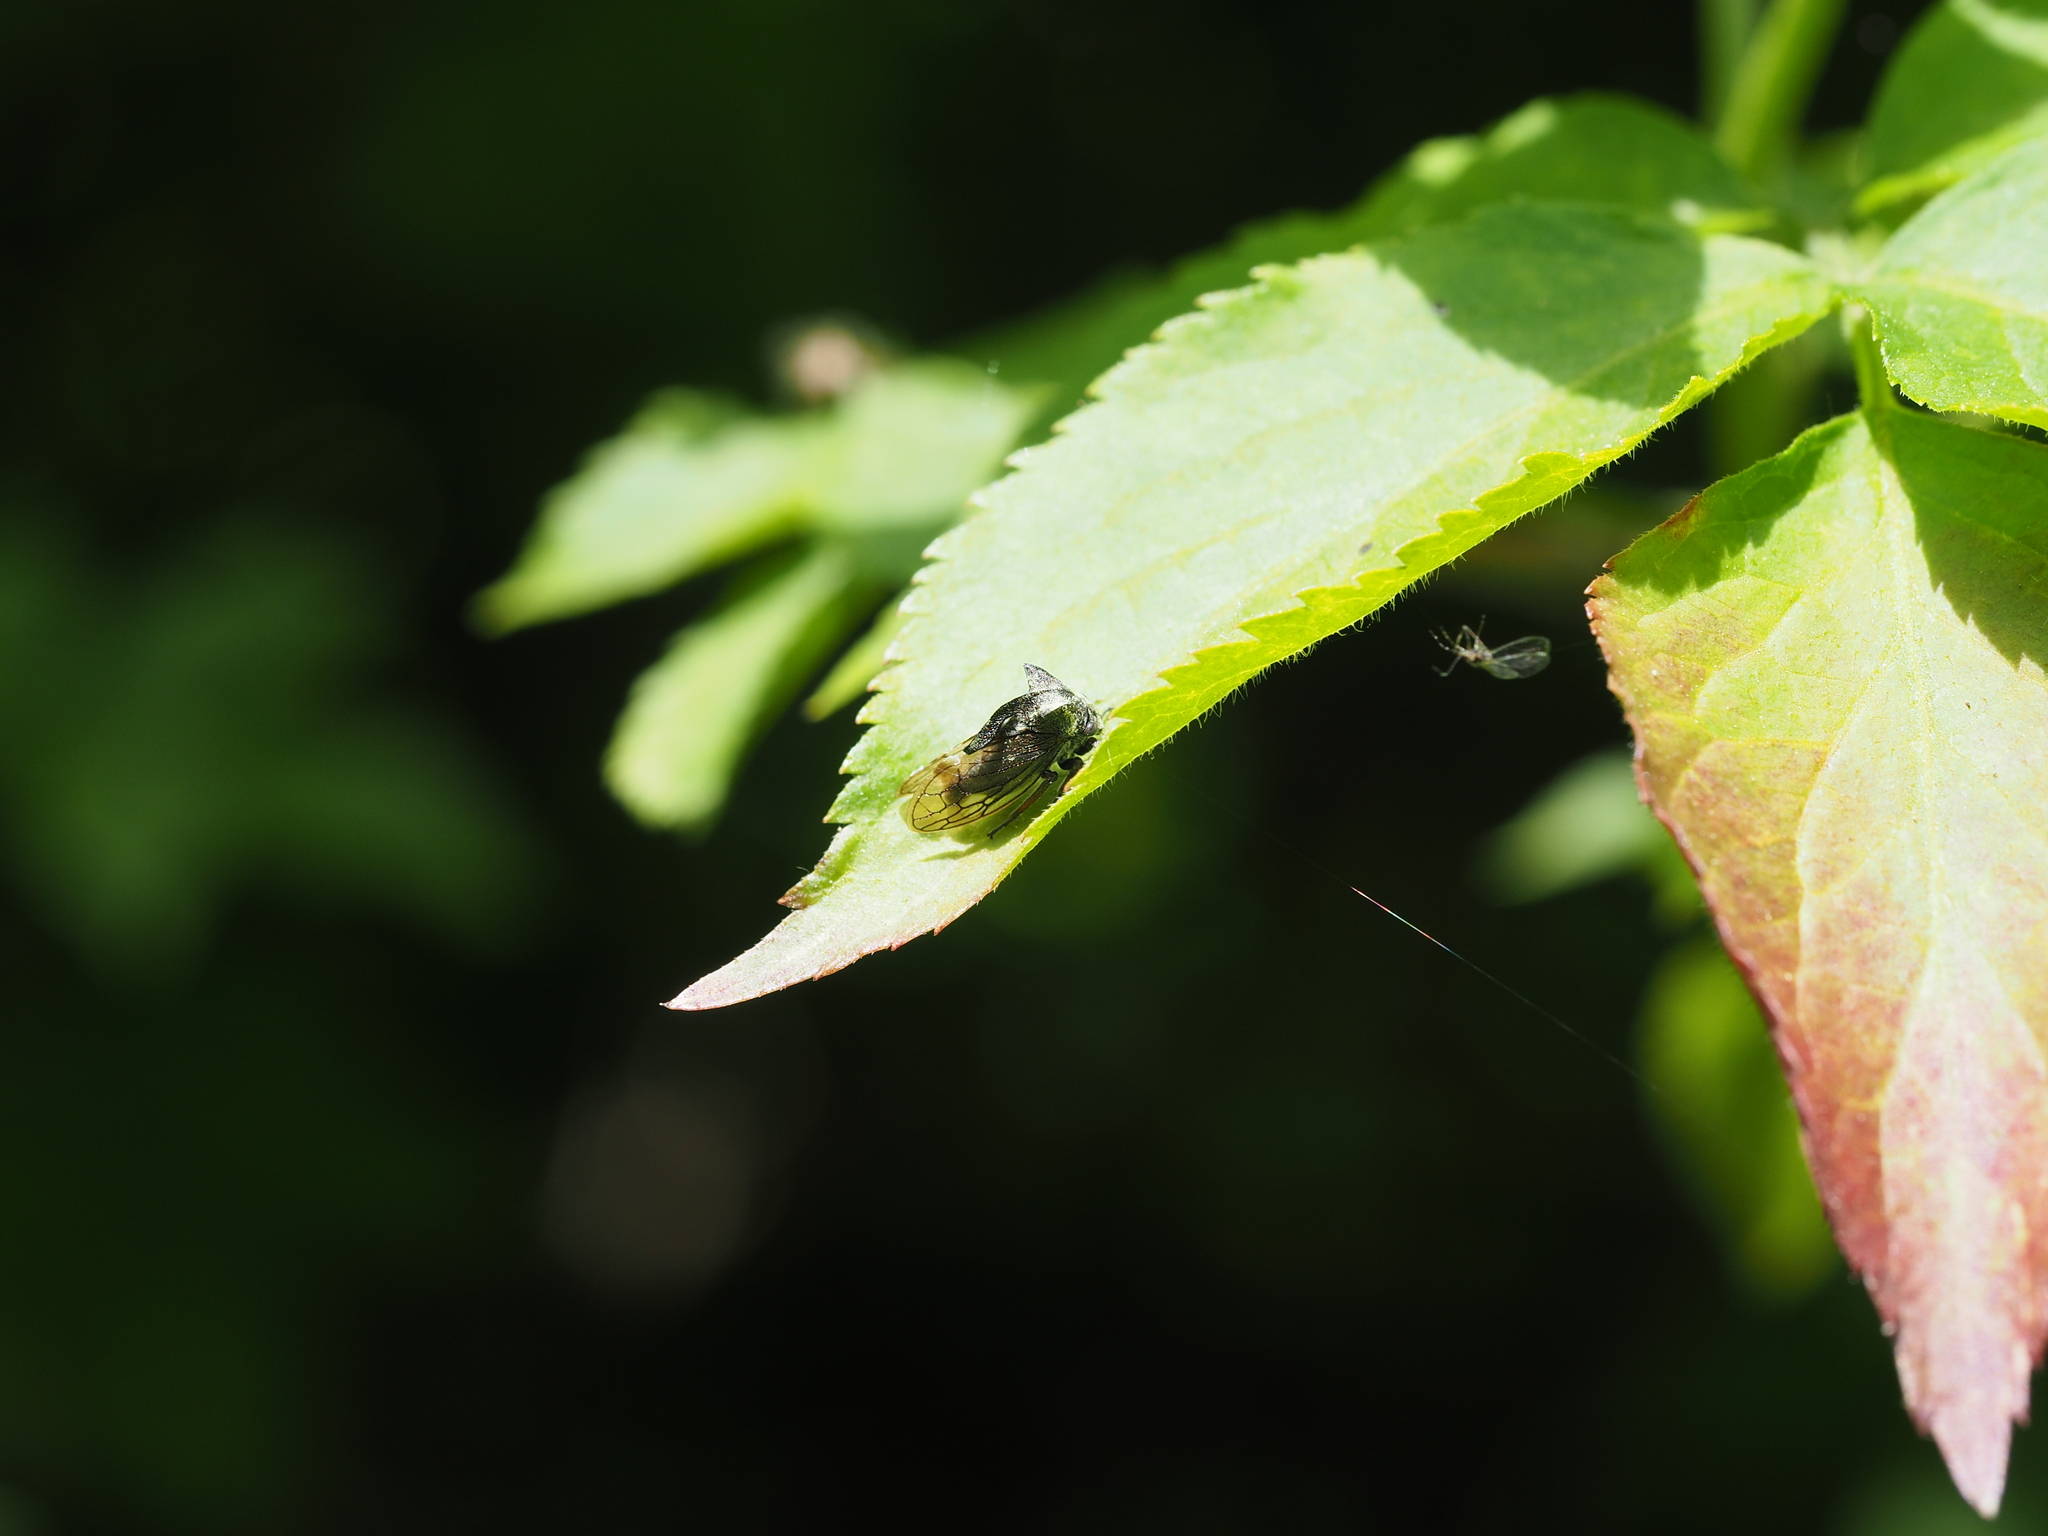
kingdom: Animalia
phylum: Arthropoda
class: Insecta
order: Hemiptera
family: Membracidae
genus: Centrotus
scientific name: Centrotus cornuta
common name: Treehopper
